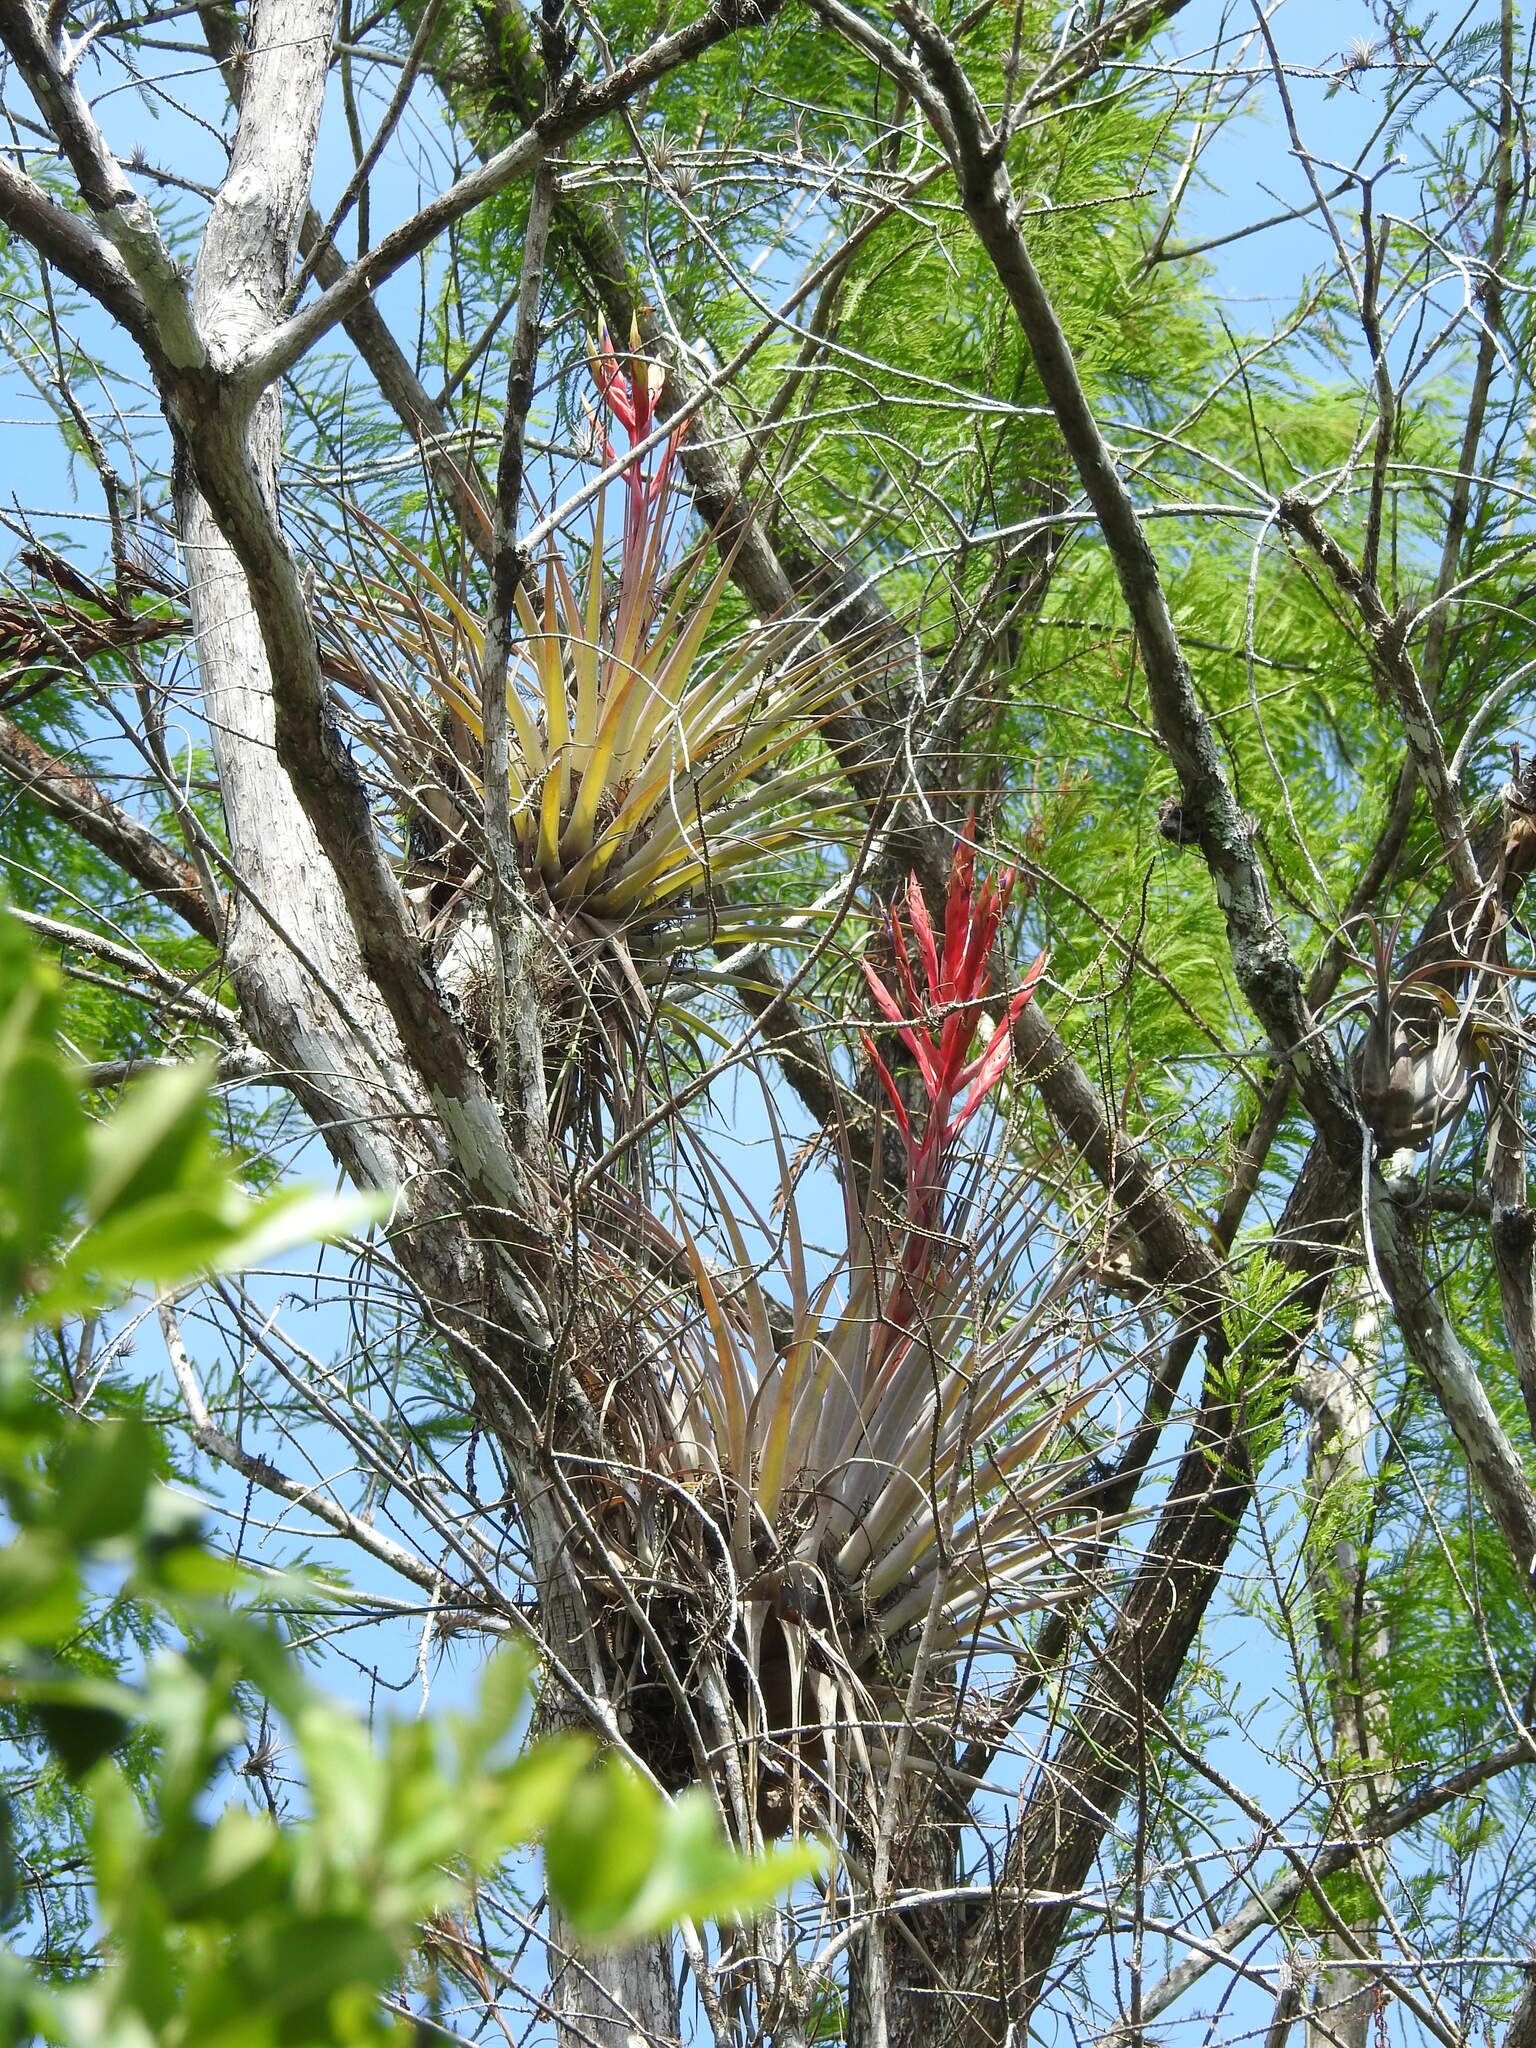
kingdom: Plantae
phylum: Tracheophyta
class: Liliopsida
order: Poales
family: Bromeliaceae
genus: Tillandsia
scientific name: Tillandsia fasciculata
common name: Giant airplant
